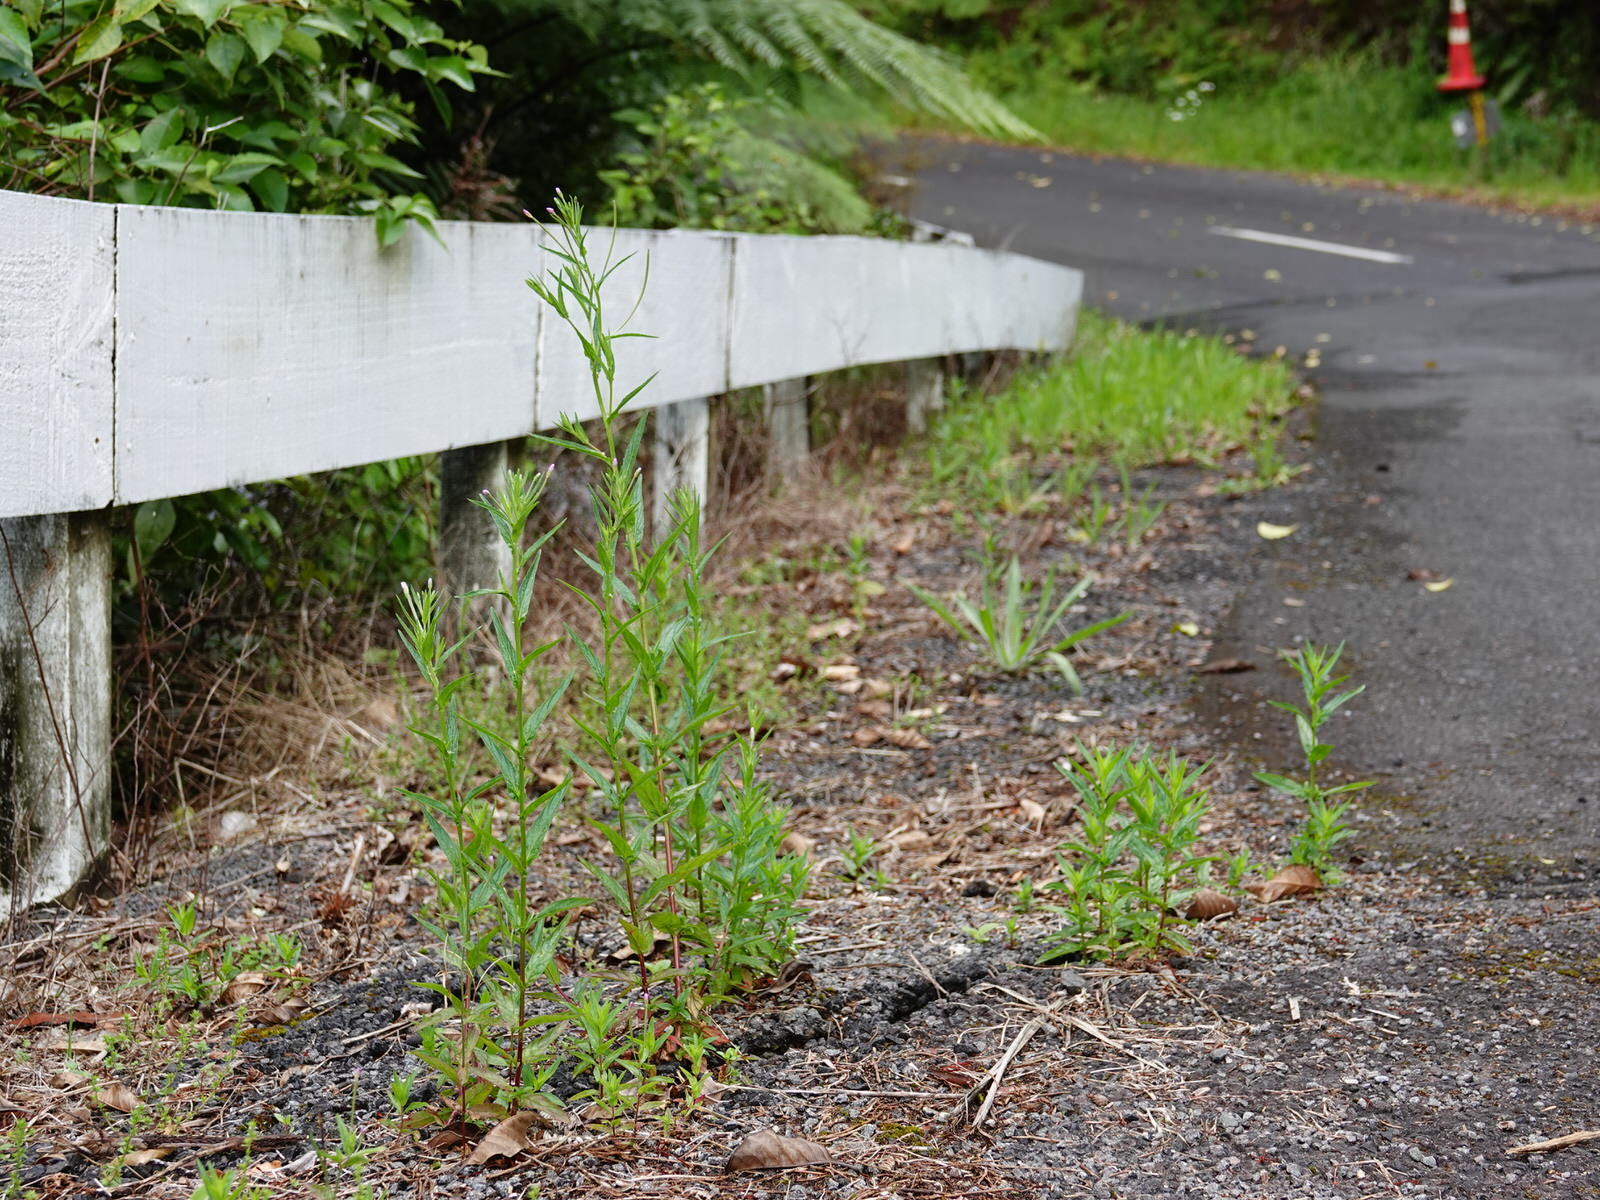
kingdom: Plantae
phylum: Tracheophyta
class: Magnoliopsida
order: Myrtales
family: Onagraceae
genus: Epilobium
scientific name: Epilobium ciliatum
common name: American willowherb
